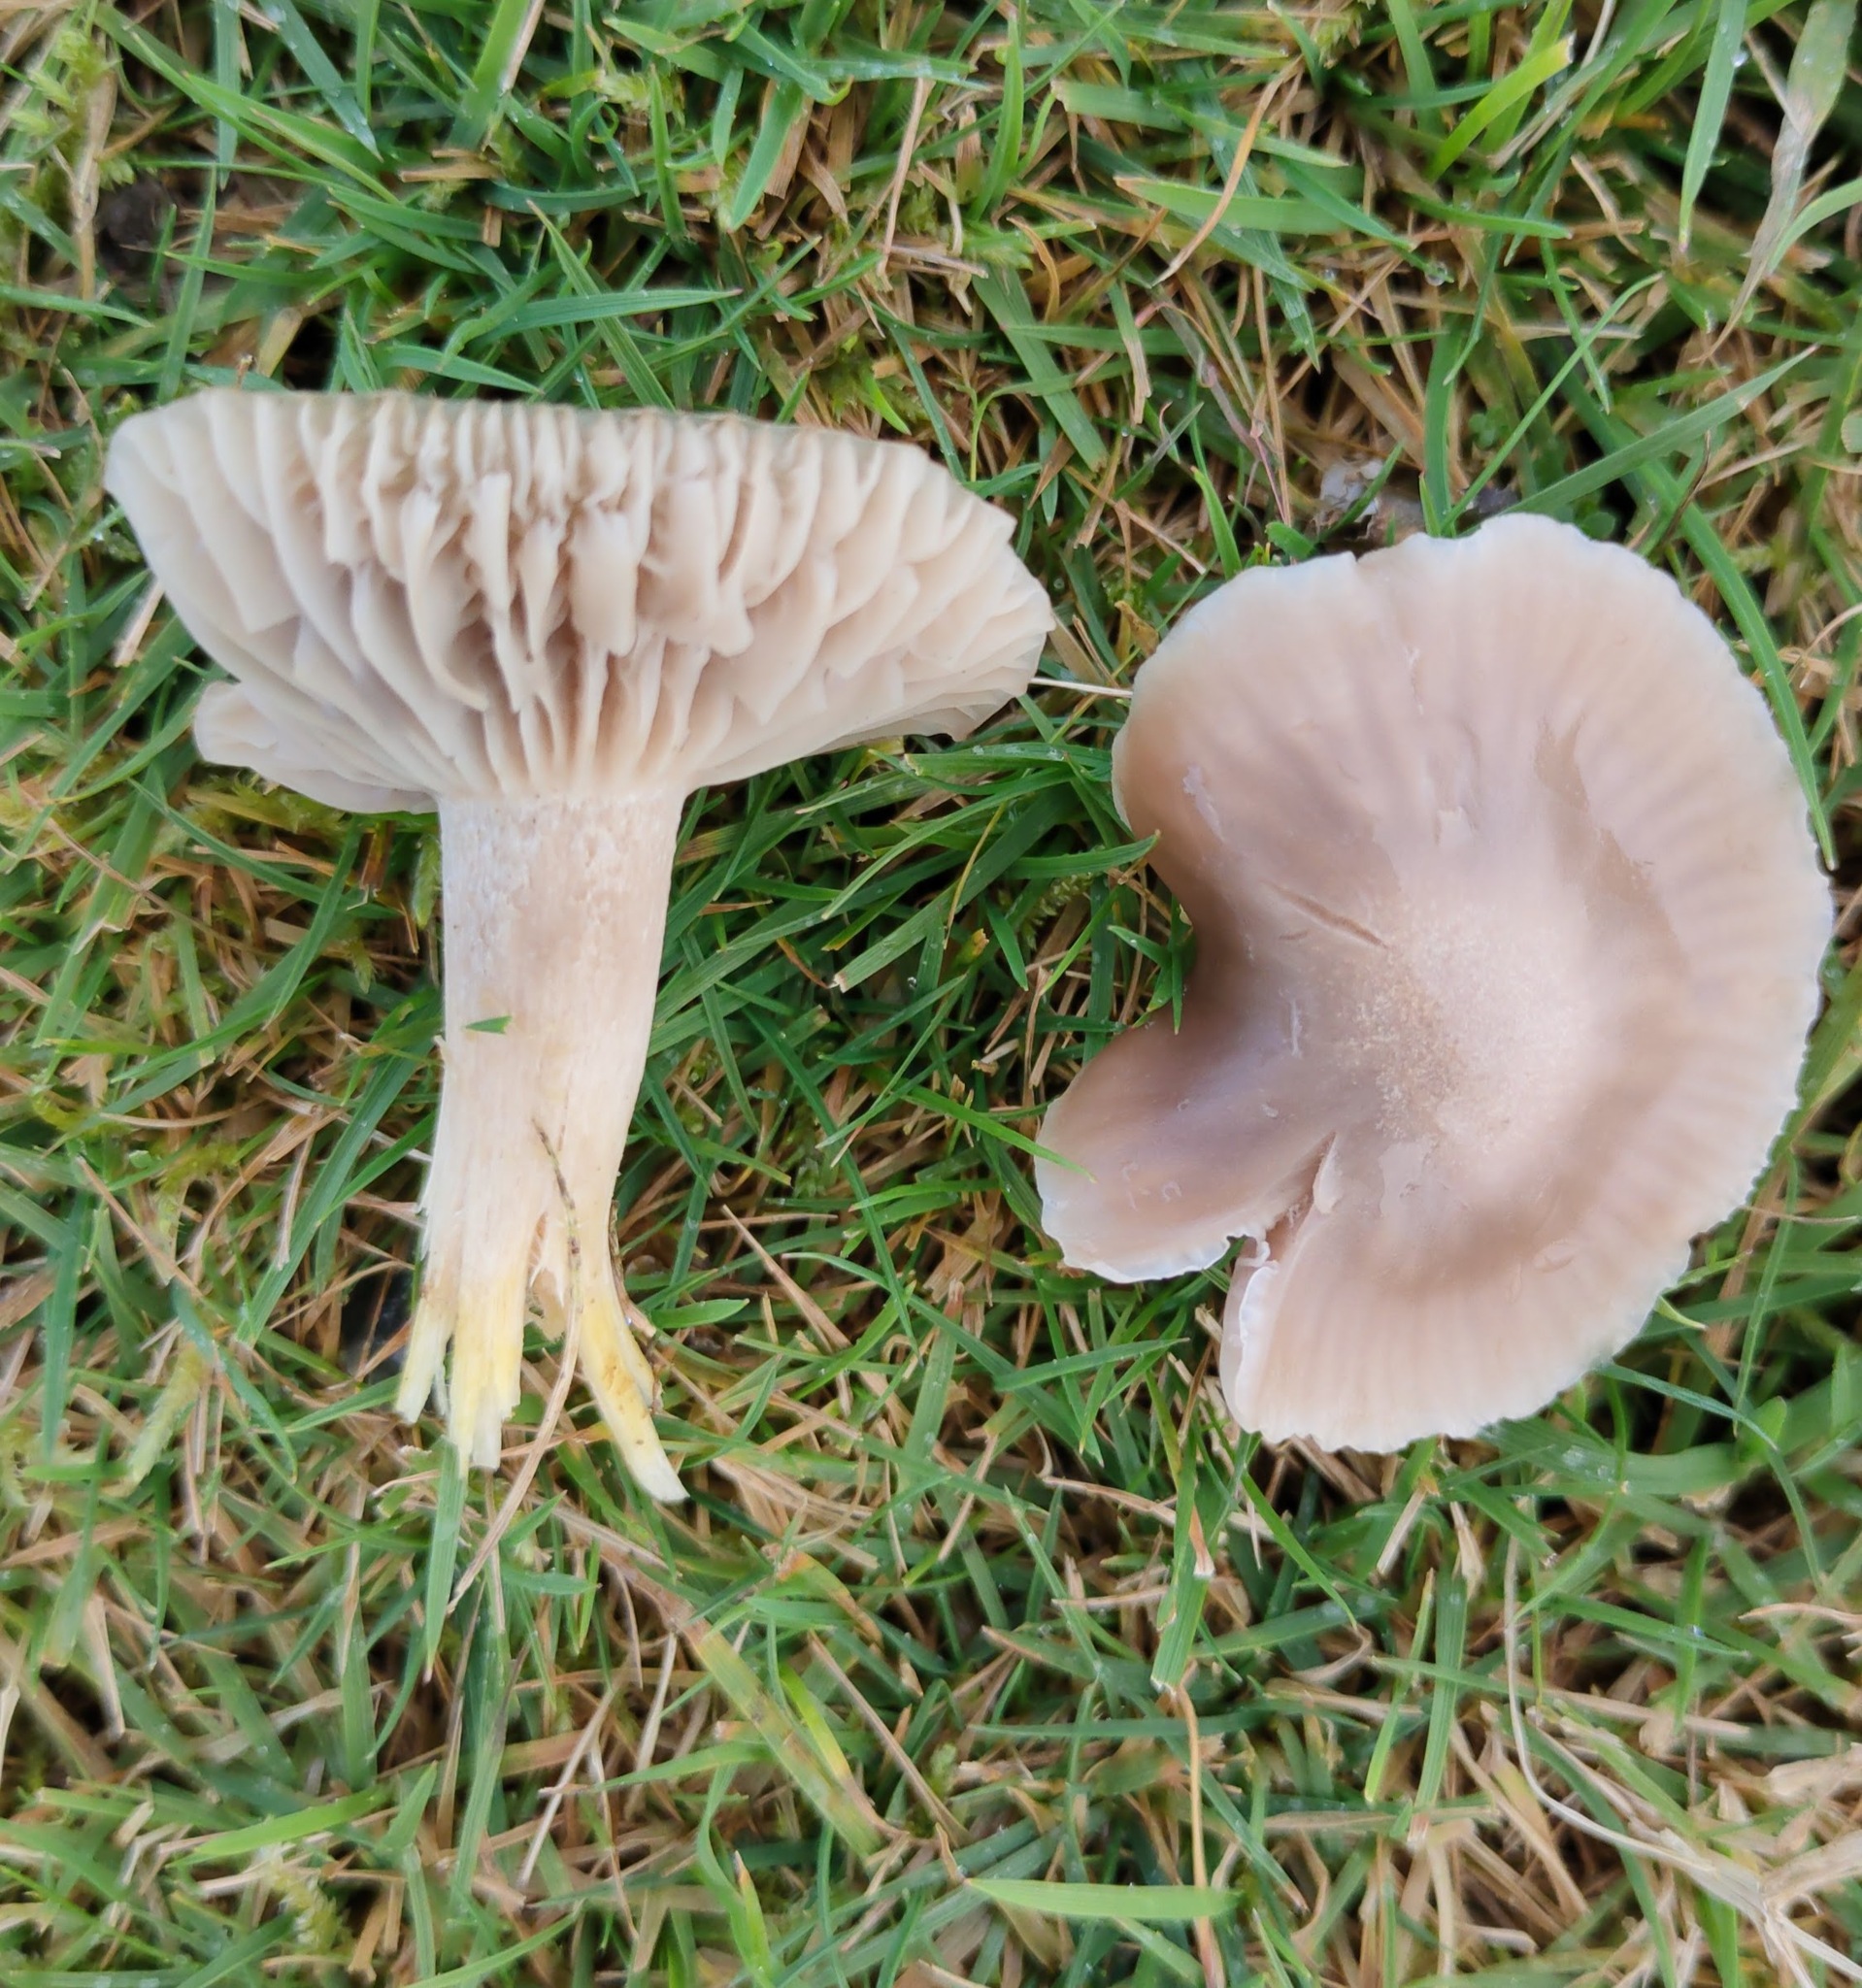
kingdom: Fungi
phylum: Basidiomycota
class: Agaricomycetes
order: Agaricales
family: Hygrophoraceae
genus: Cuphophyllus
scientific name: Cuphophyllus flavipes
